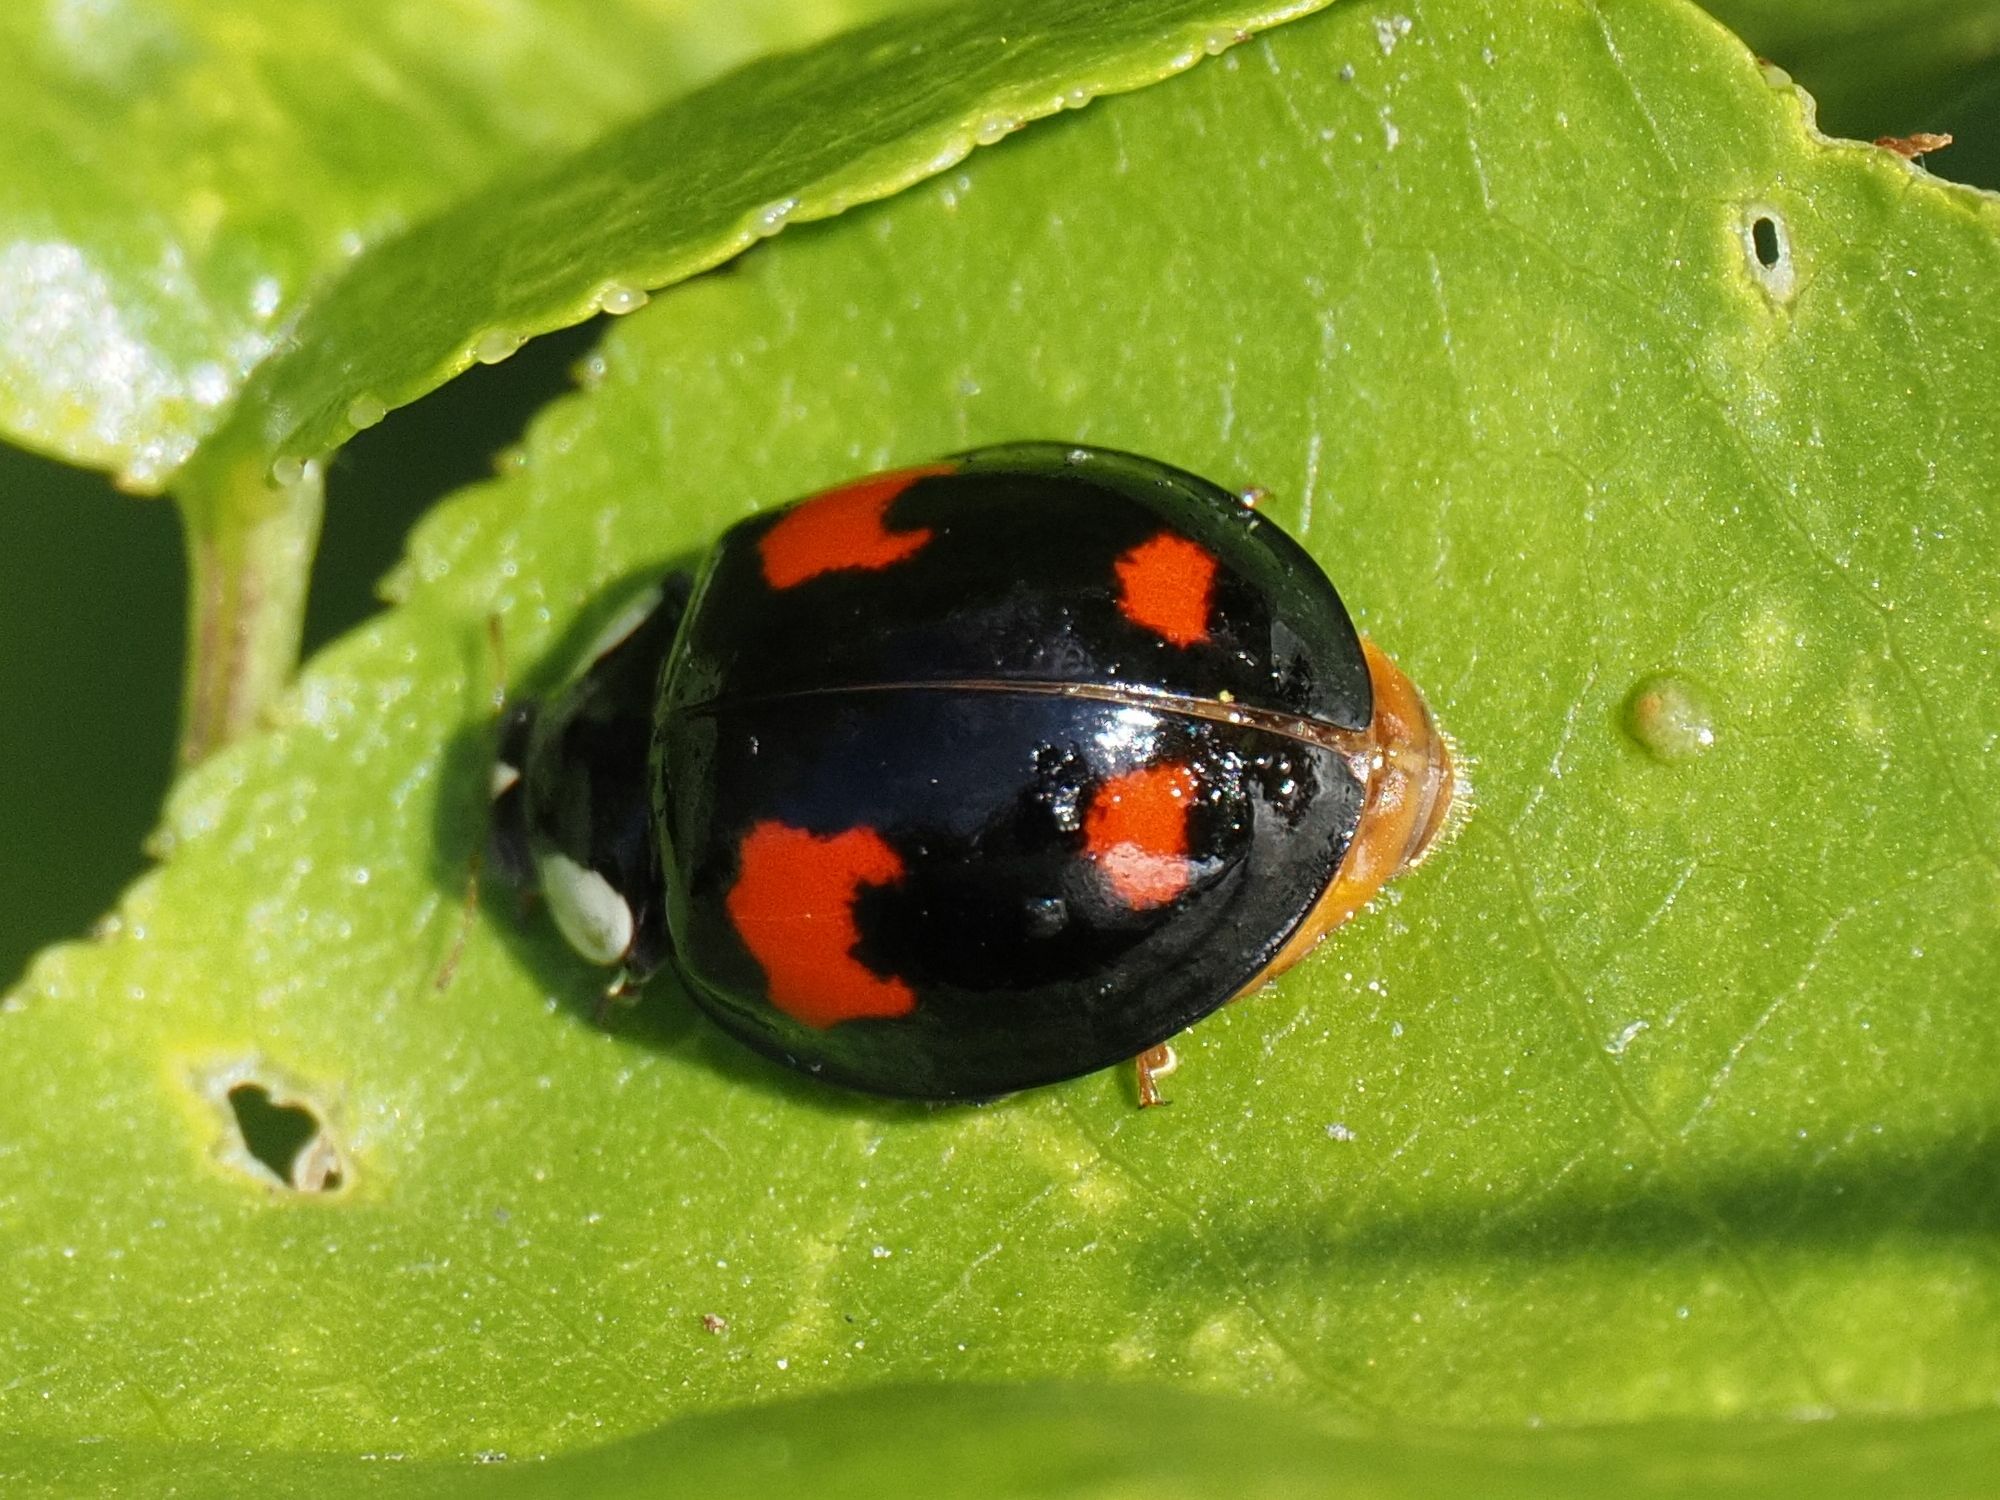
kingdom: Animalia
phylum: Arthropoda
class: Insecta
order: Coleoptera
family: Coccinellidae
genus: Harmonia
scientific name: Harmonia axyridis
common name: Harlequin ladybird
